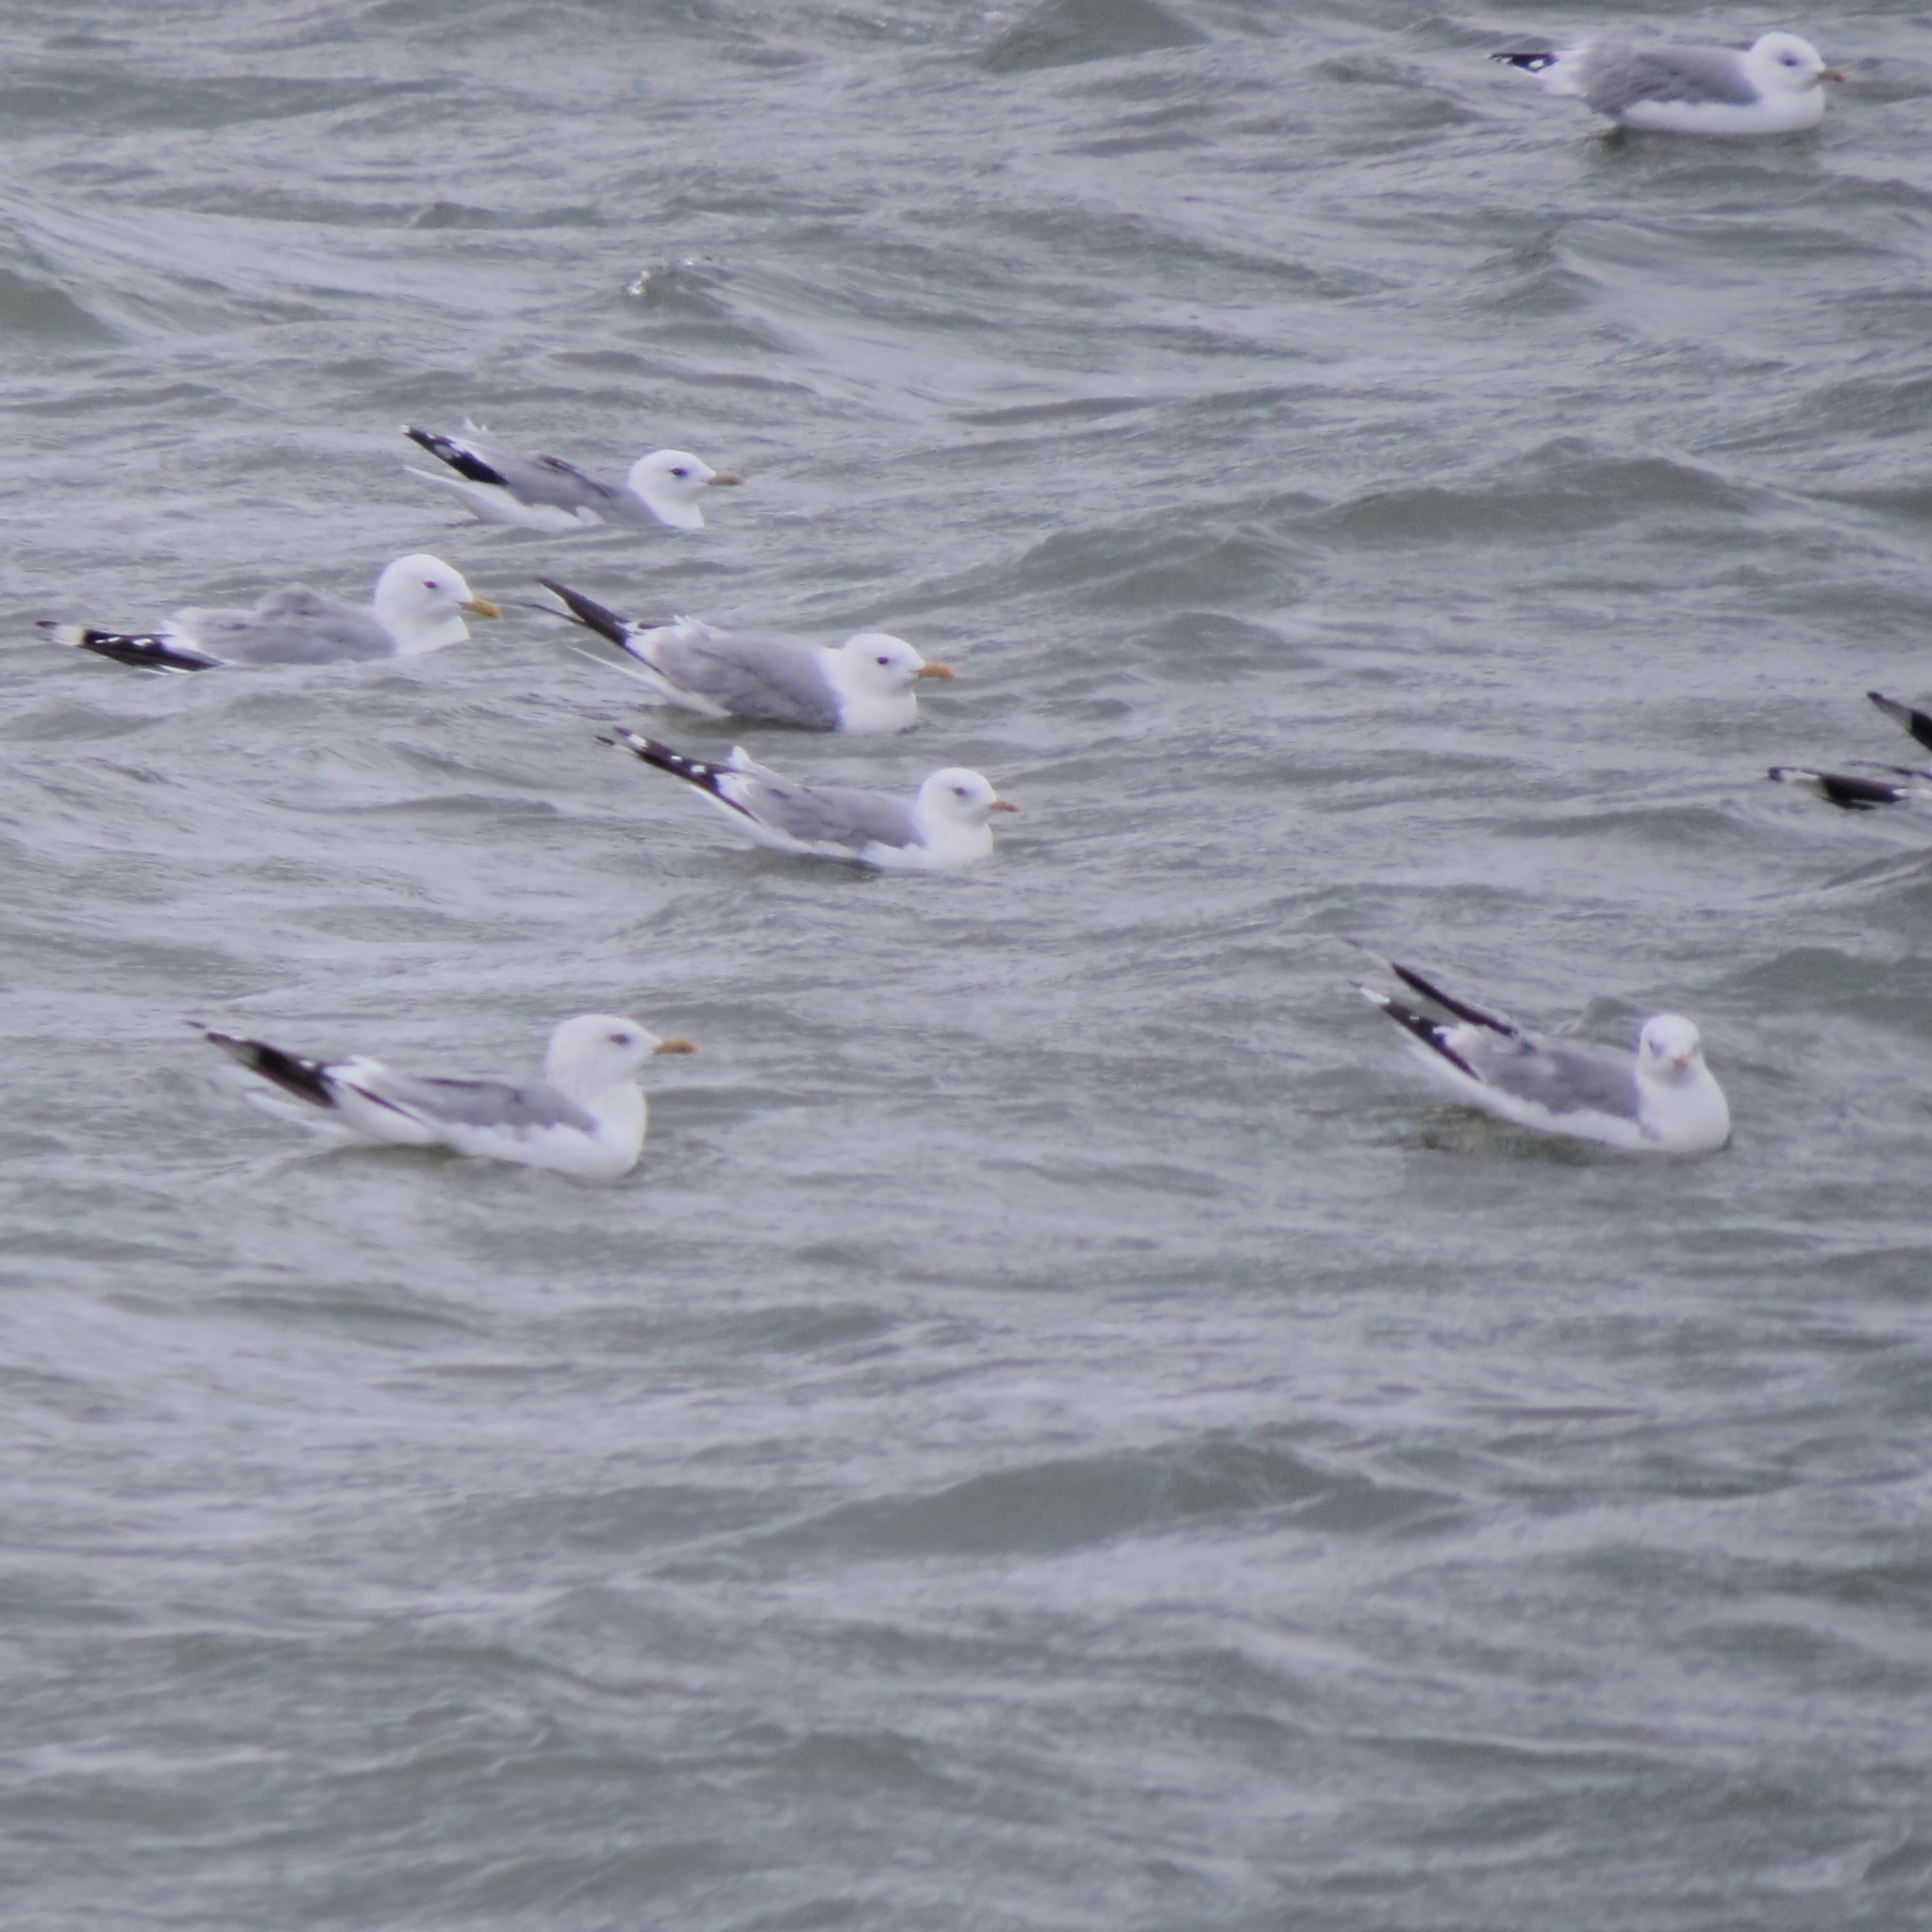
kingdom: Animalia
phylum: Chordata
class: Aves
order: Charadriiformes
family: Laridae
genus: Larus
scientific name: Larus canus
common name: Mew gull
